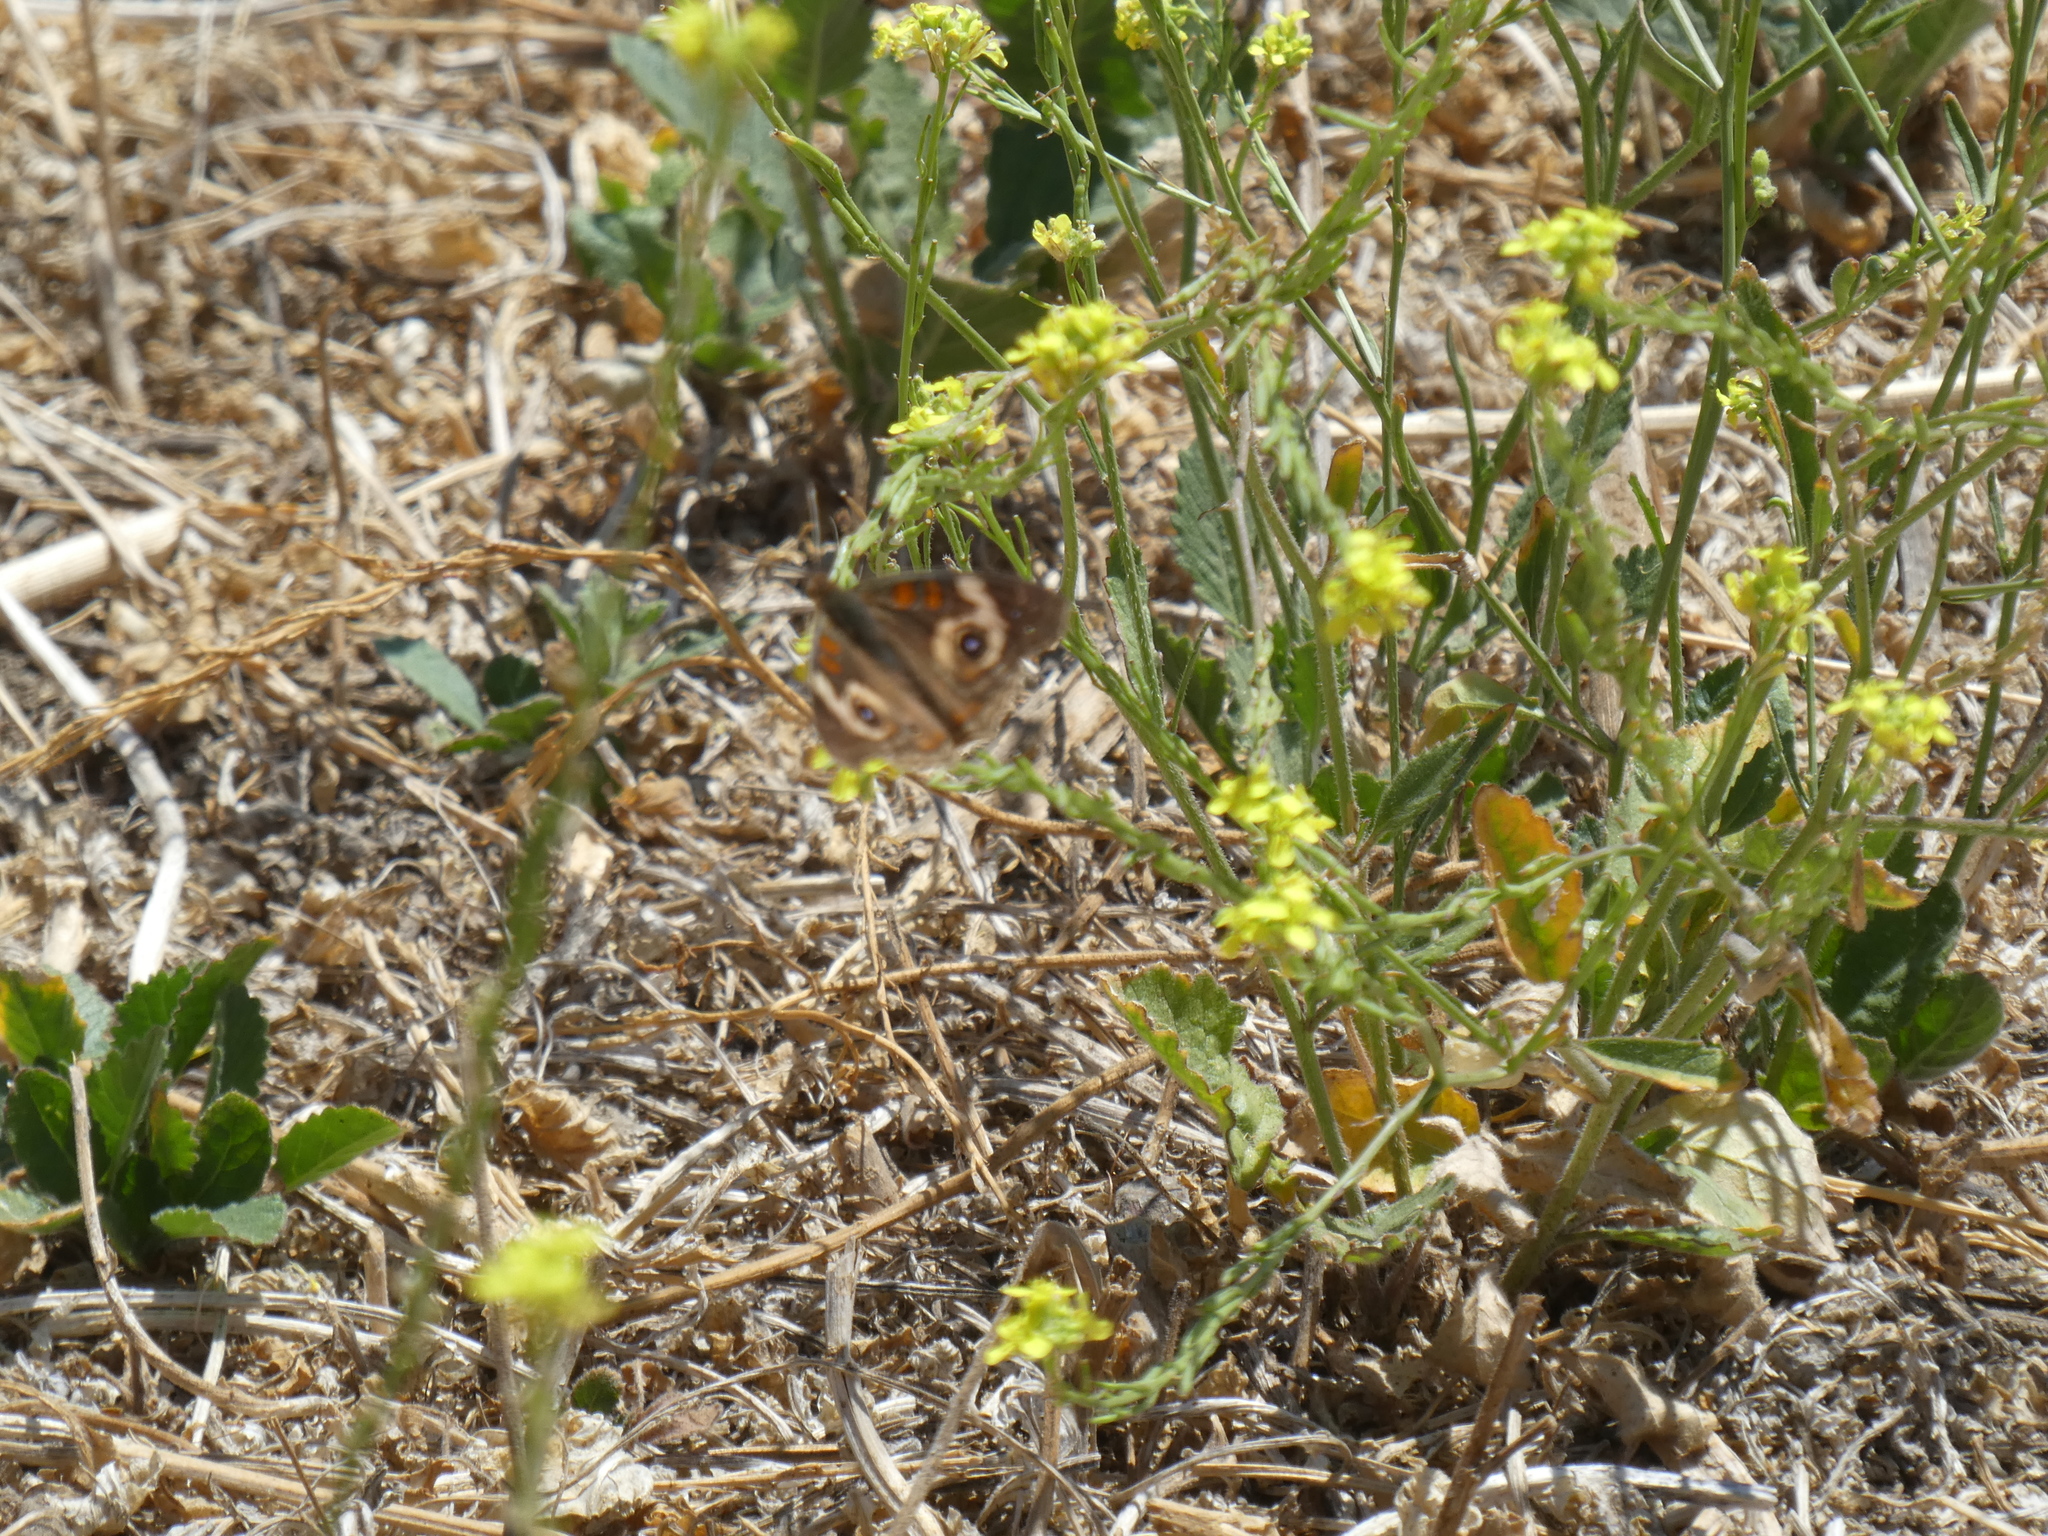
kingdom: Animalia
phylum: Arthropoda
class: Insecta
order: Lepidoptera
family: Nymphalidae
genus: Junonia
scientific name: Junonia grisea
